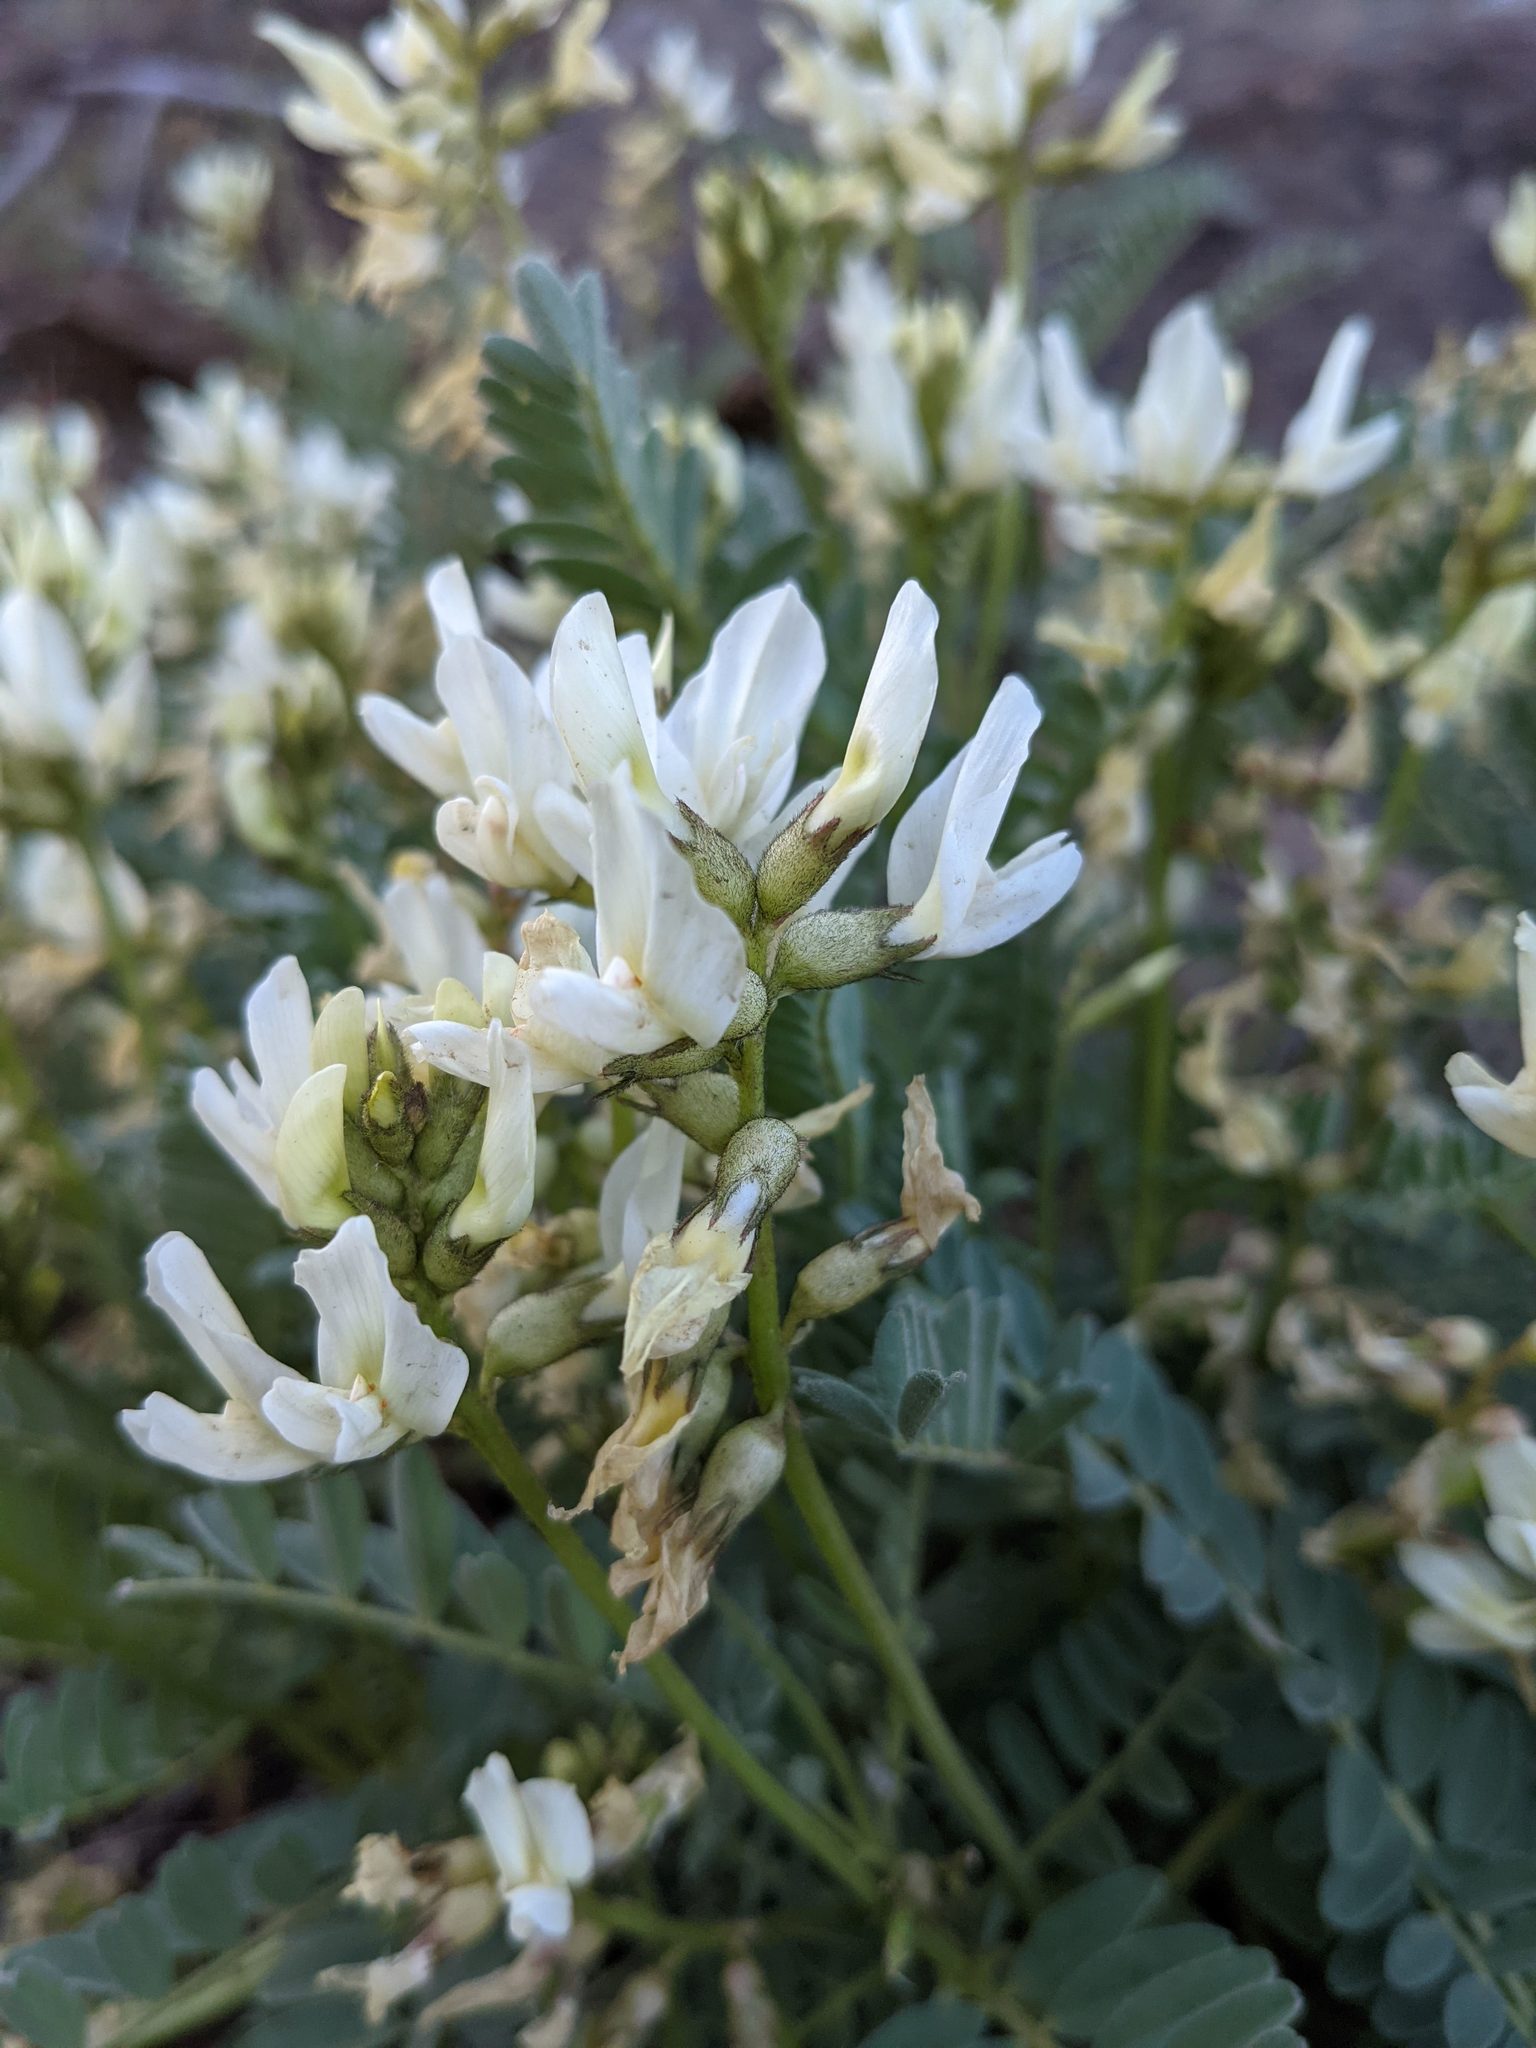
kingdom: Plantae
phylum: Tracheophyta
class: Magnoliopsida
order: Fabales
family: Fabaceae
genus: Astragalus
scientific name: Astragalus accidens
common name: Rogue river milkvetch
